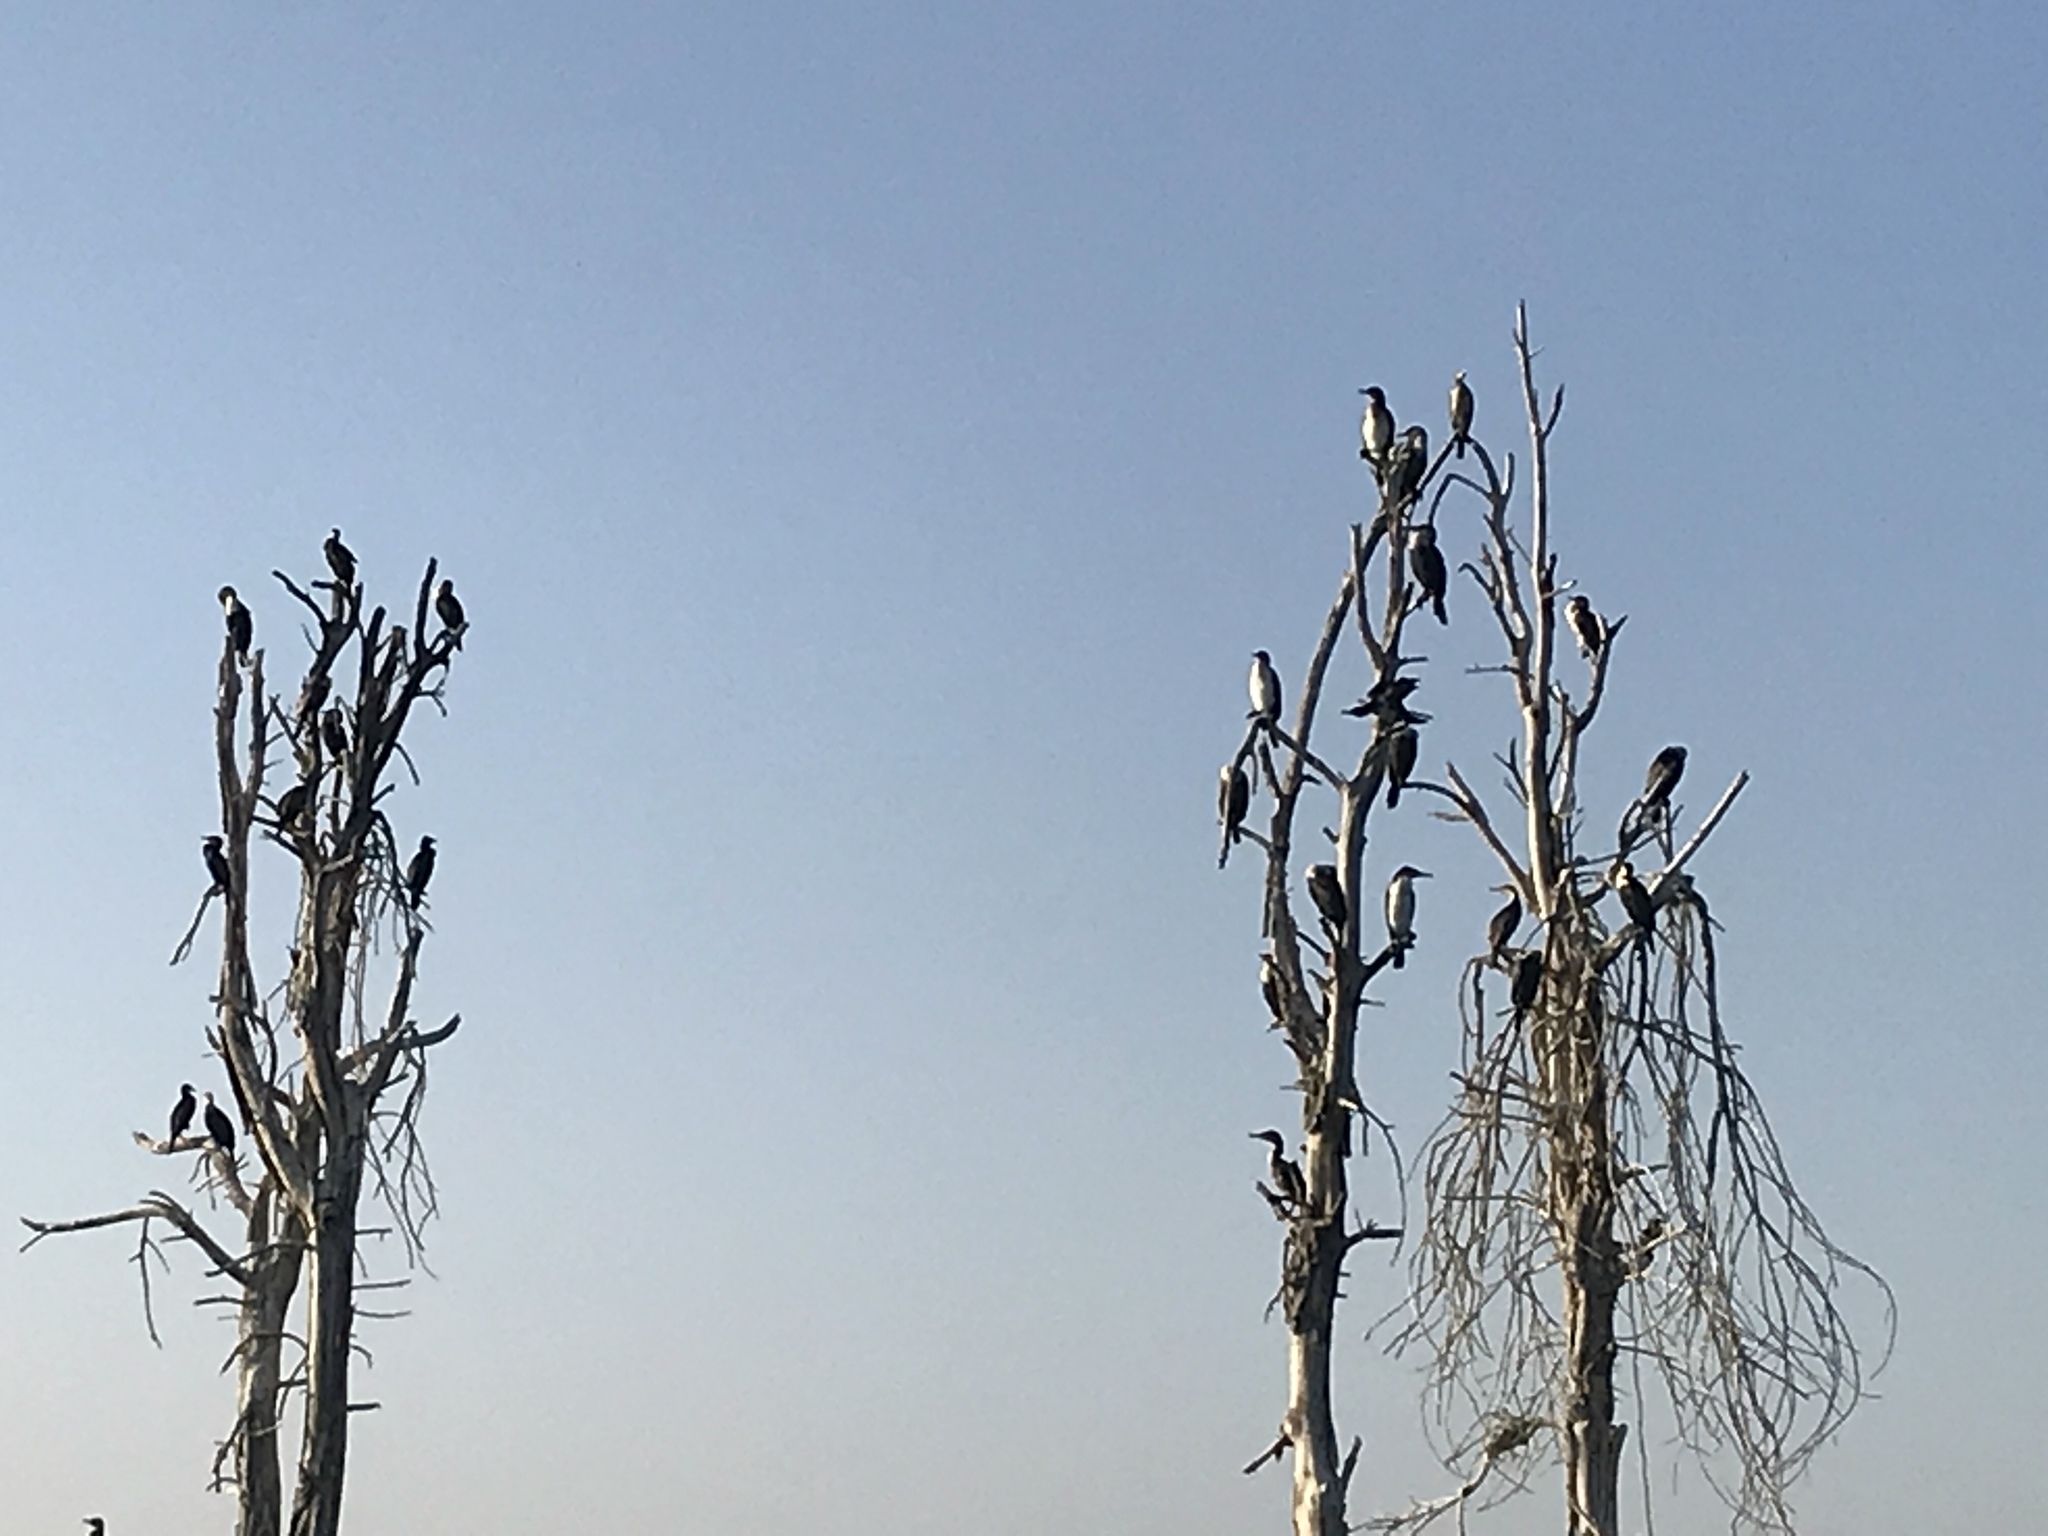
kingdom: Animalia
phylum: Chordata
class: Aves
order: Suliformes
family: Phalacrocoracidae
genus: Phalacrocorax
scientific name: Phalacrocorax carbo
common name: Great cormorant
